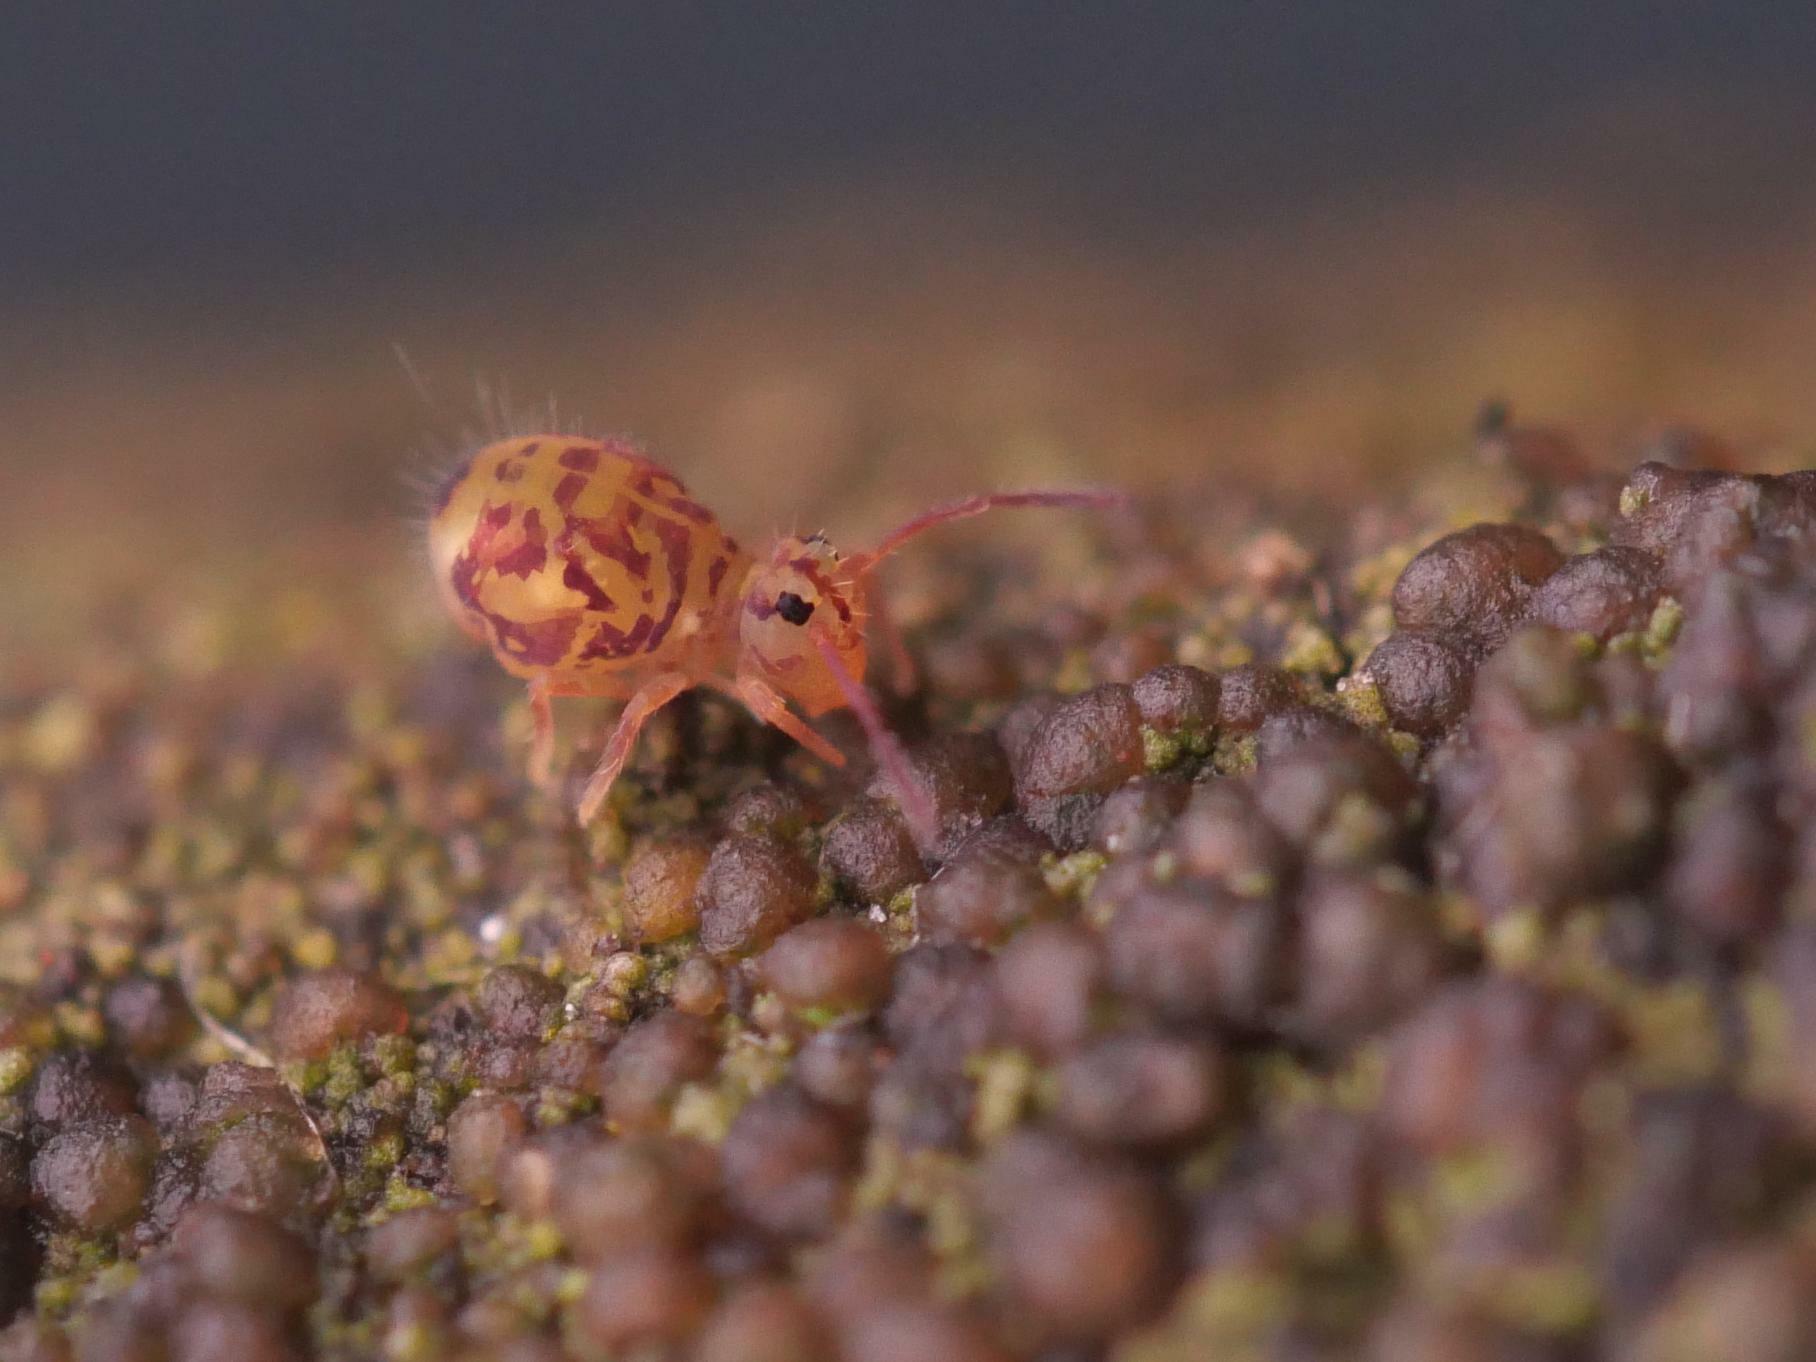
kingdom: Animalia
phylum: Arthropoda
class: Collembola
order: Symphypleona
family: Dicyrtomidae
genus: Dicyrtomina
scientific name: Dicyrtomina ornata
